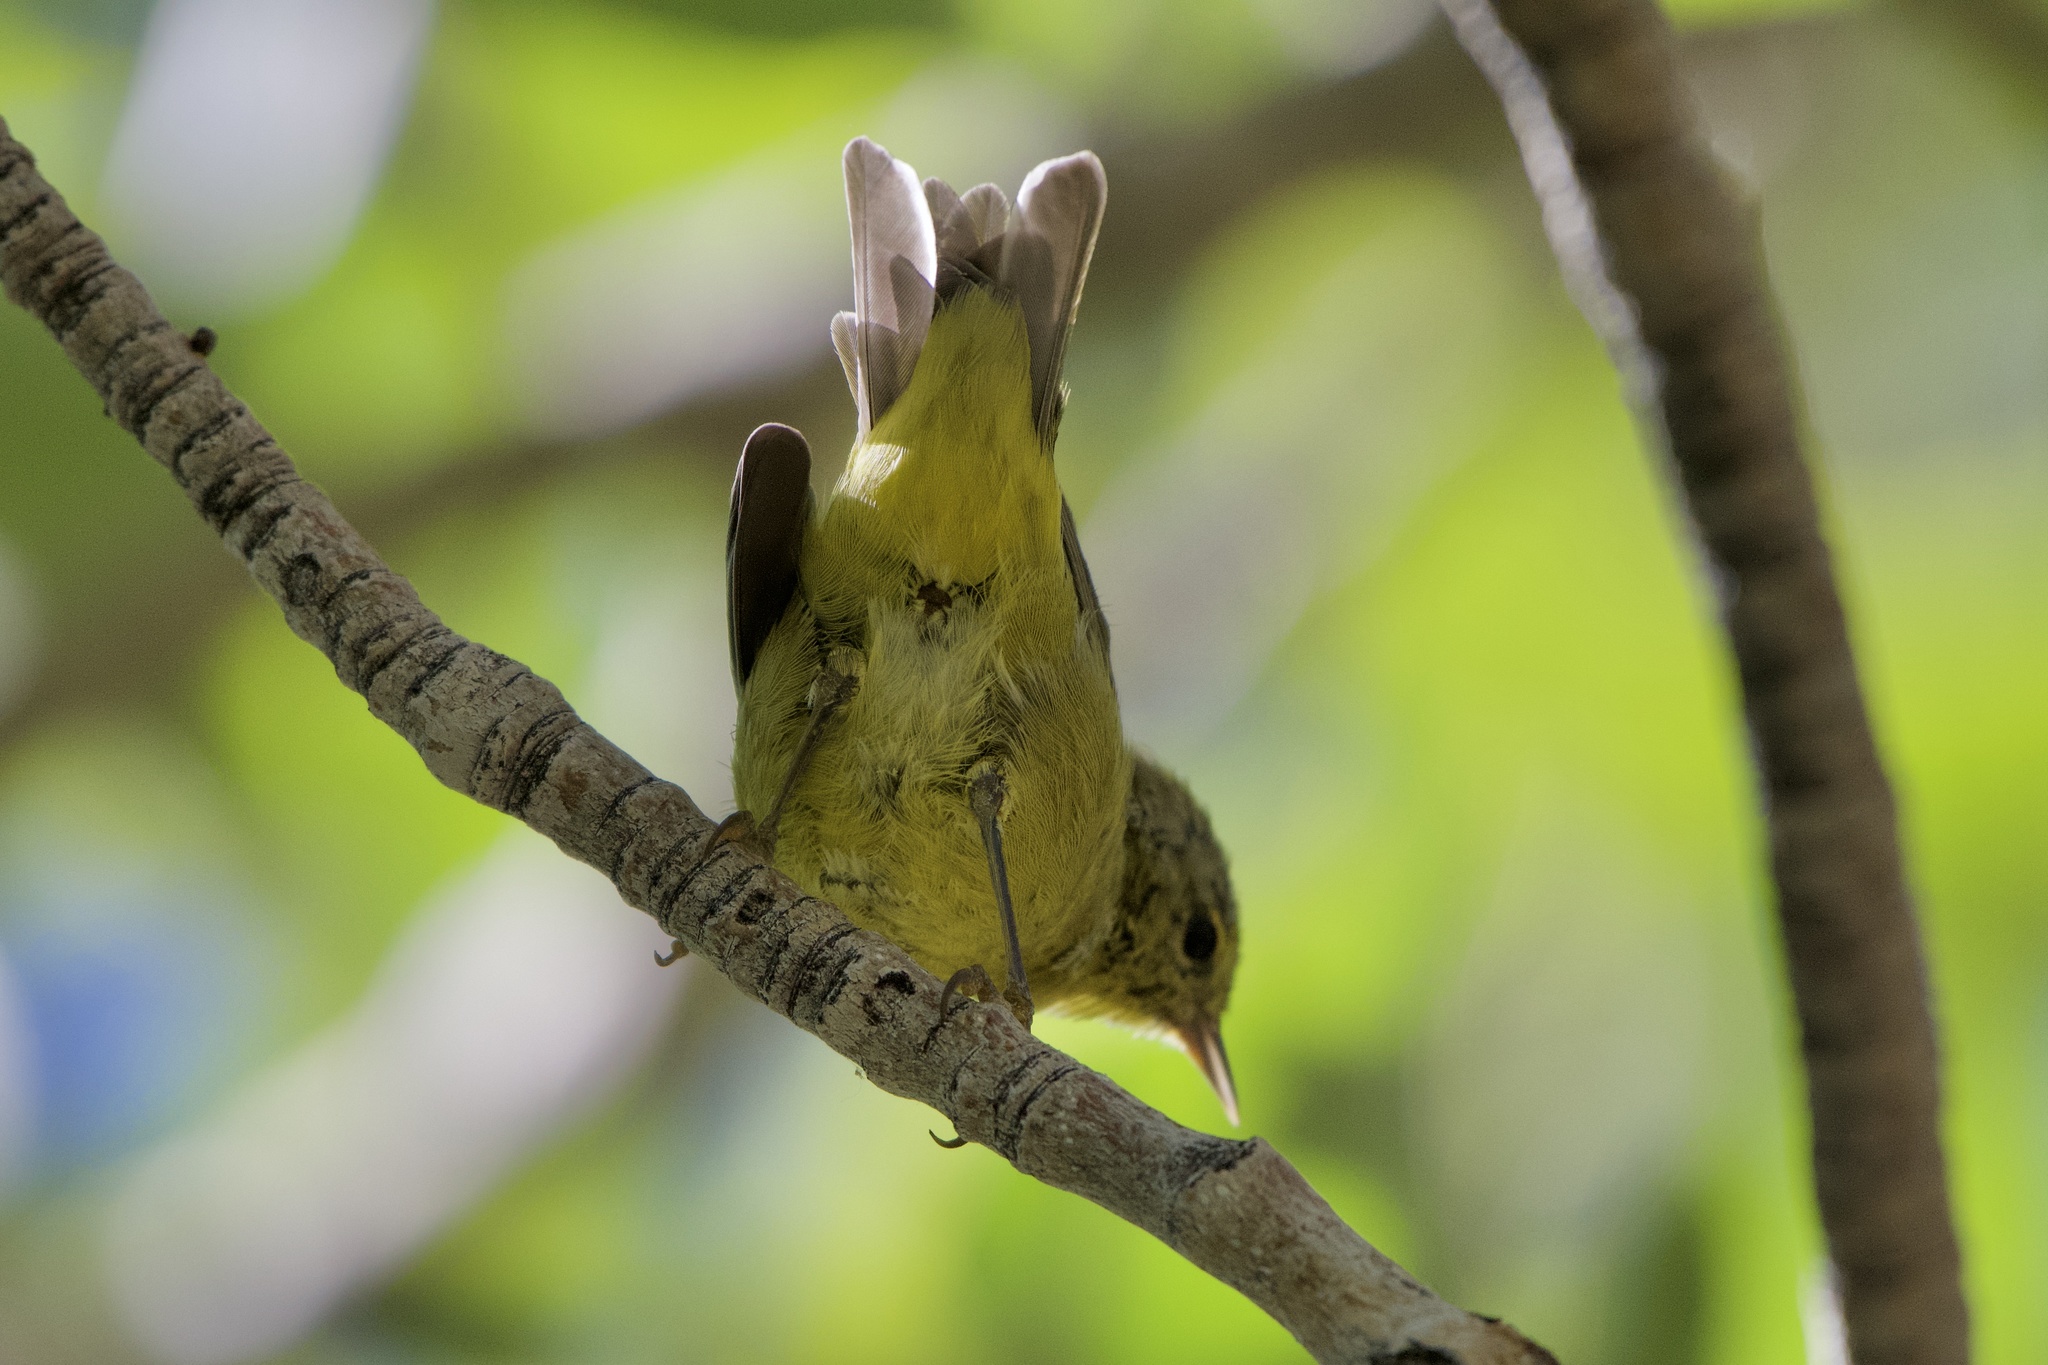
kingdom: Animalia
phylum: Chordata
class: Aves
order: Passeriformes
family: Parulidae
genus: Leiothlypis
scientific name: Leiothlypis celata
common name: Orange-crowned warbler
